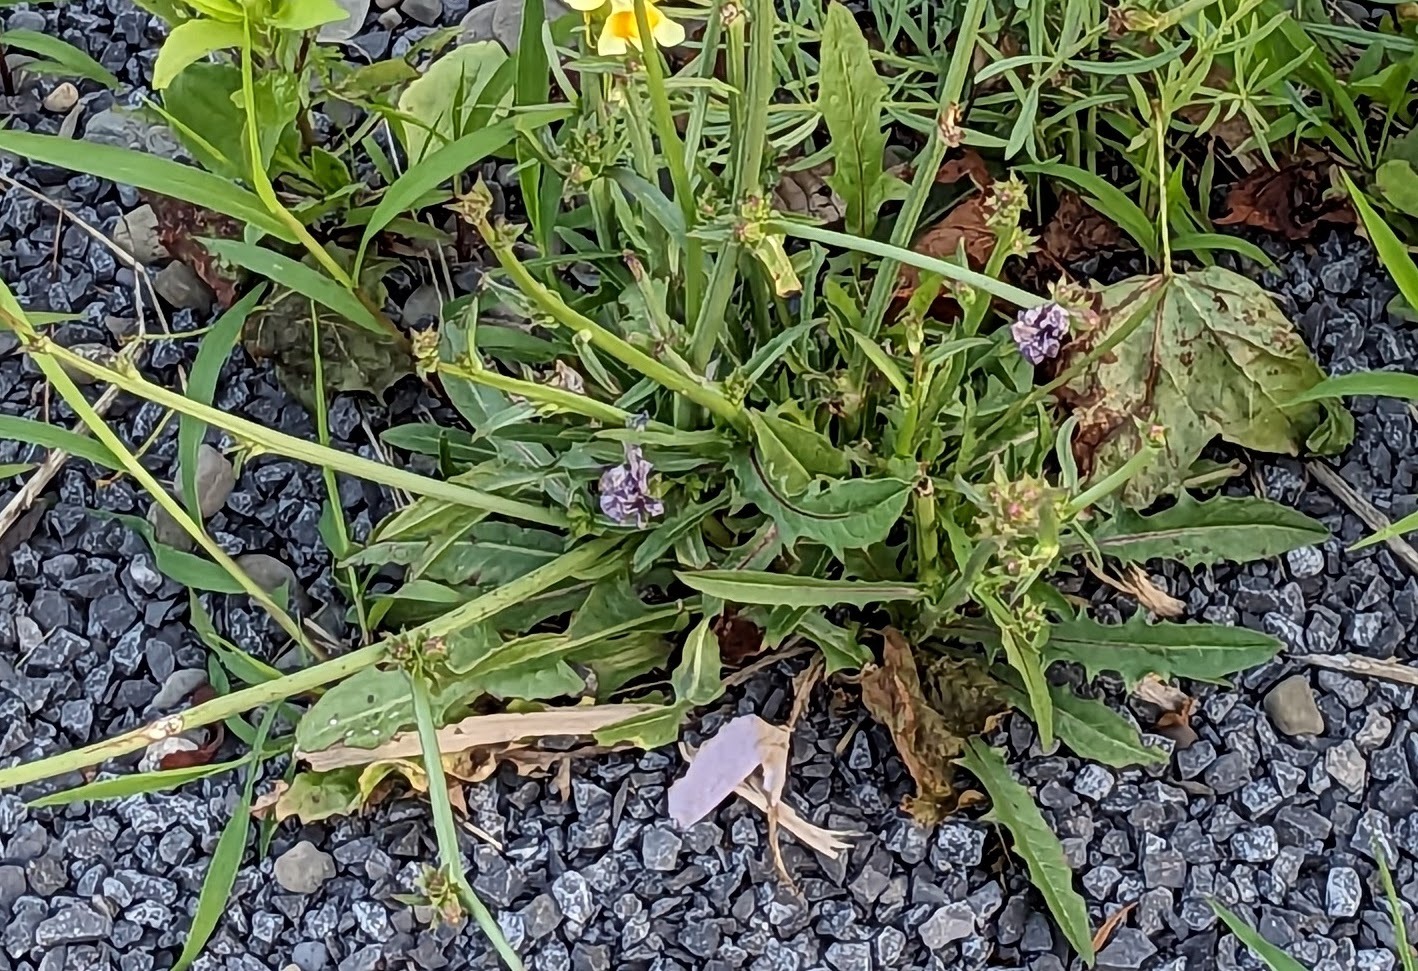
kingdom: Plantae
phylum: Tracheophyta
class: Magnoliopsida
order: Asterales
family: Asteraceae
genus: Cichorium
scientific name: Cichorium intybus
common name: Chicory
